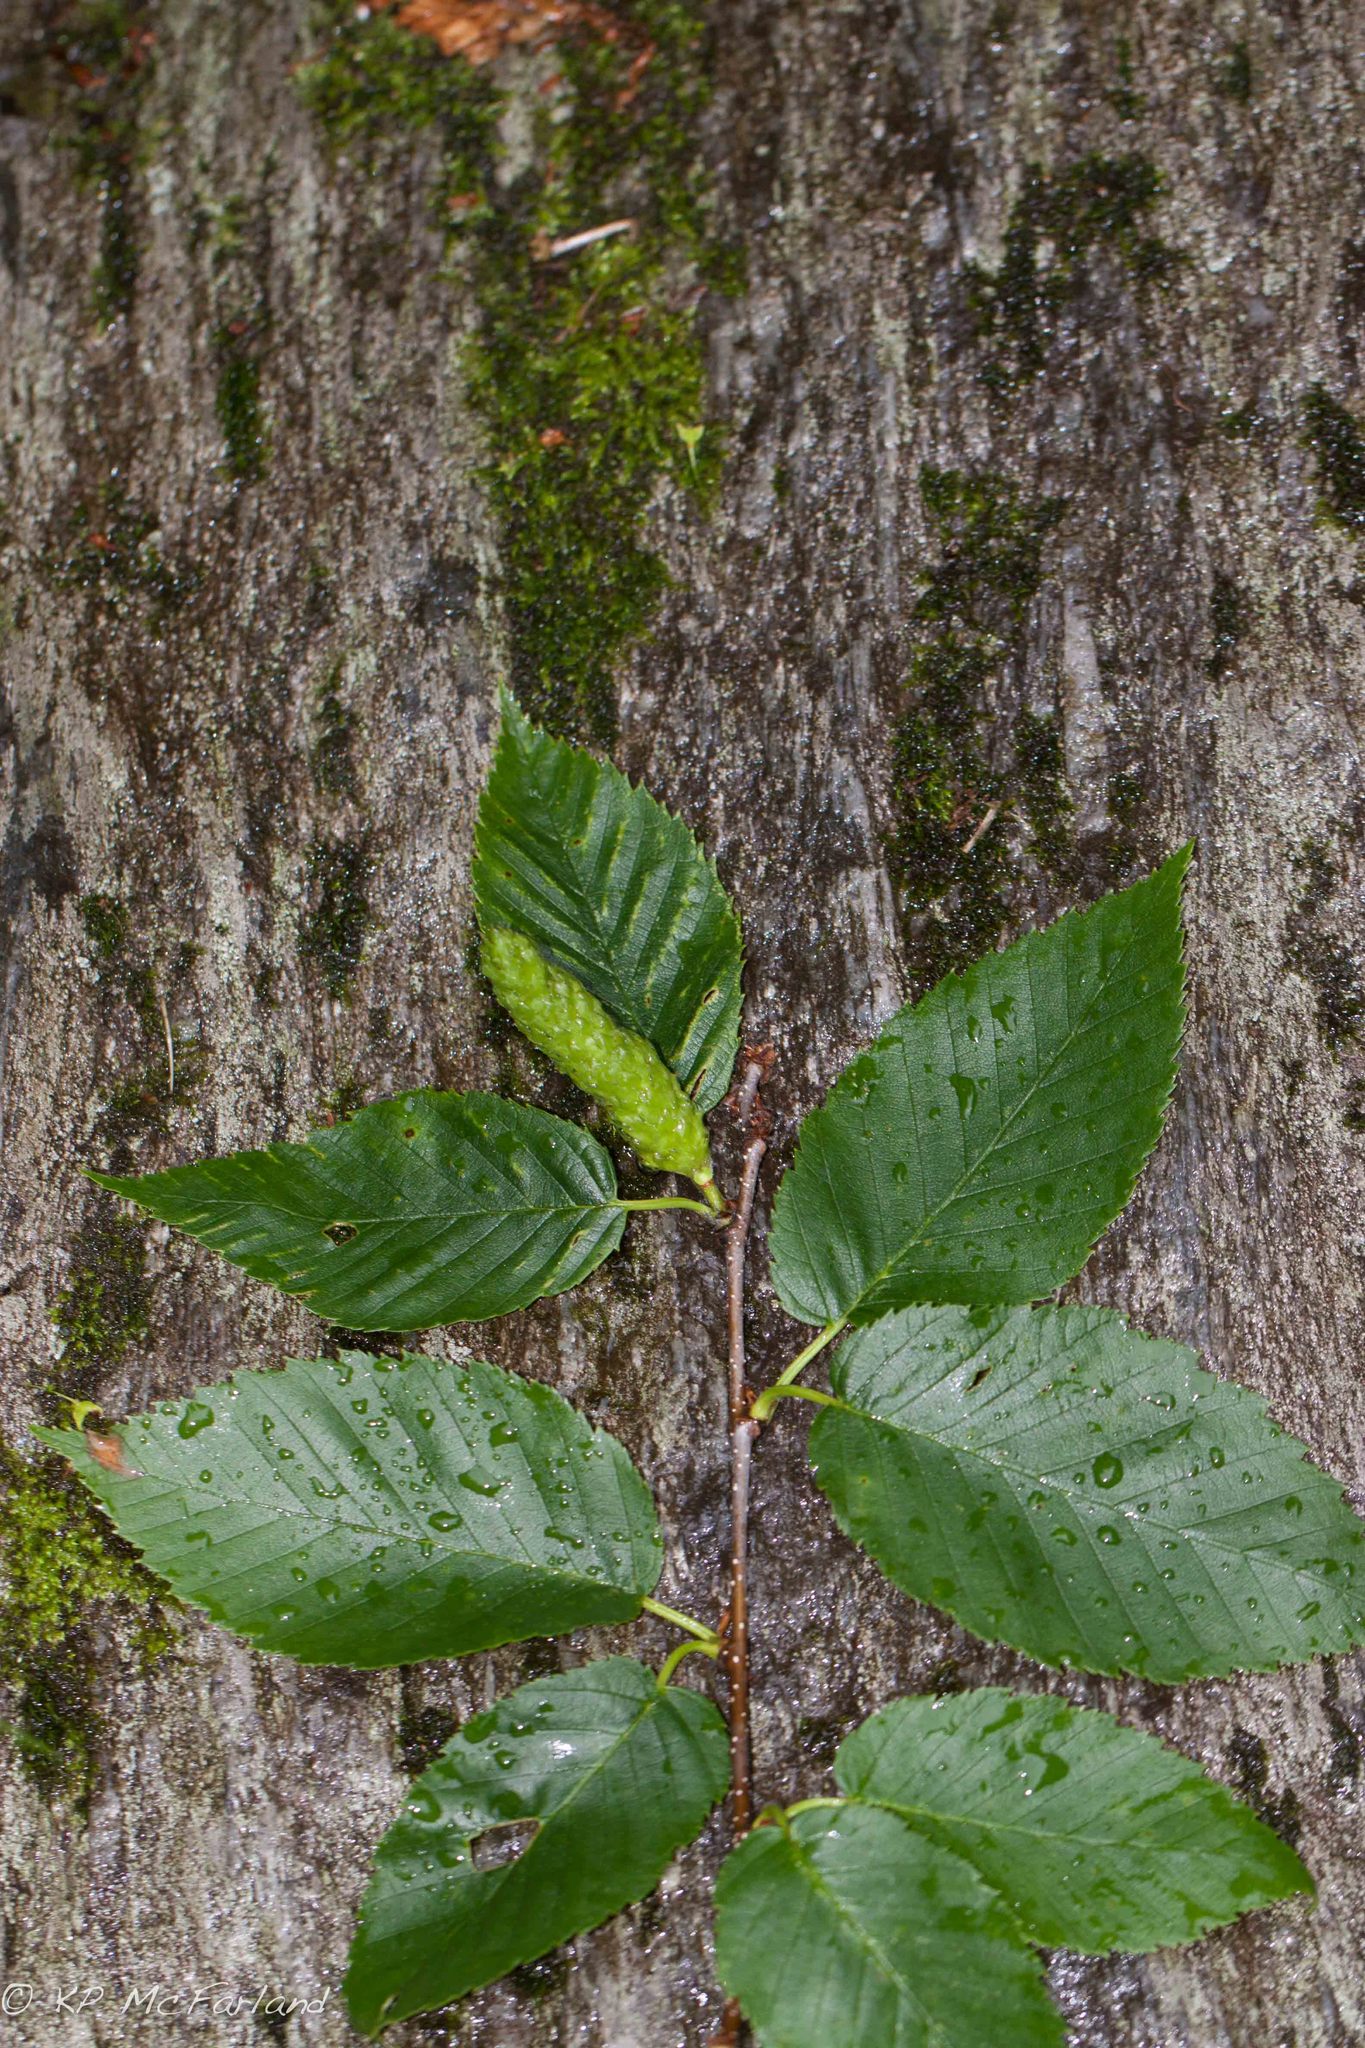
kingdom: Plantae
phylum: Tracheophyta
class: Magnoliopsida
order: Fagales
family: Betulaceae
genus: Betula
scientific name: Betula alleghaniensis
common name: Yellow birch
